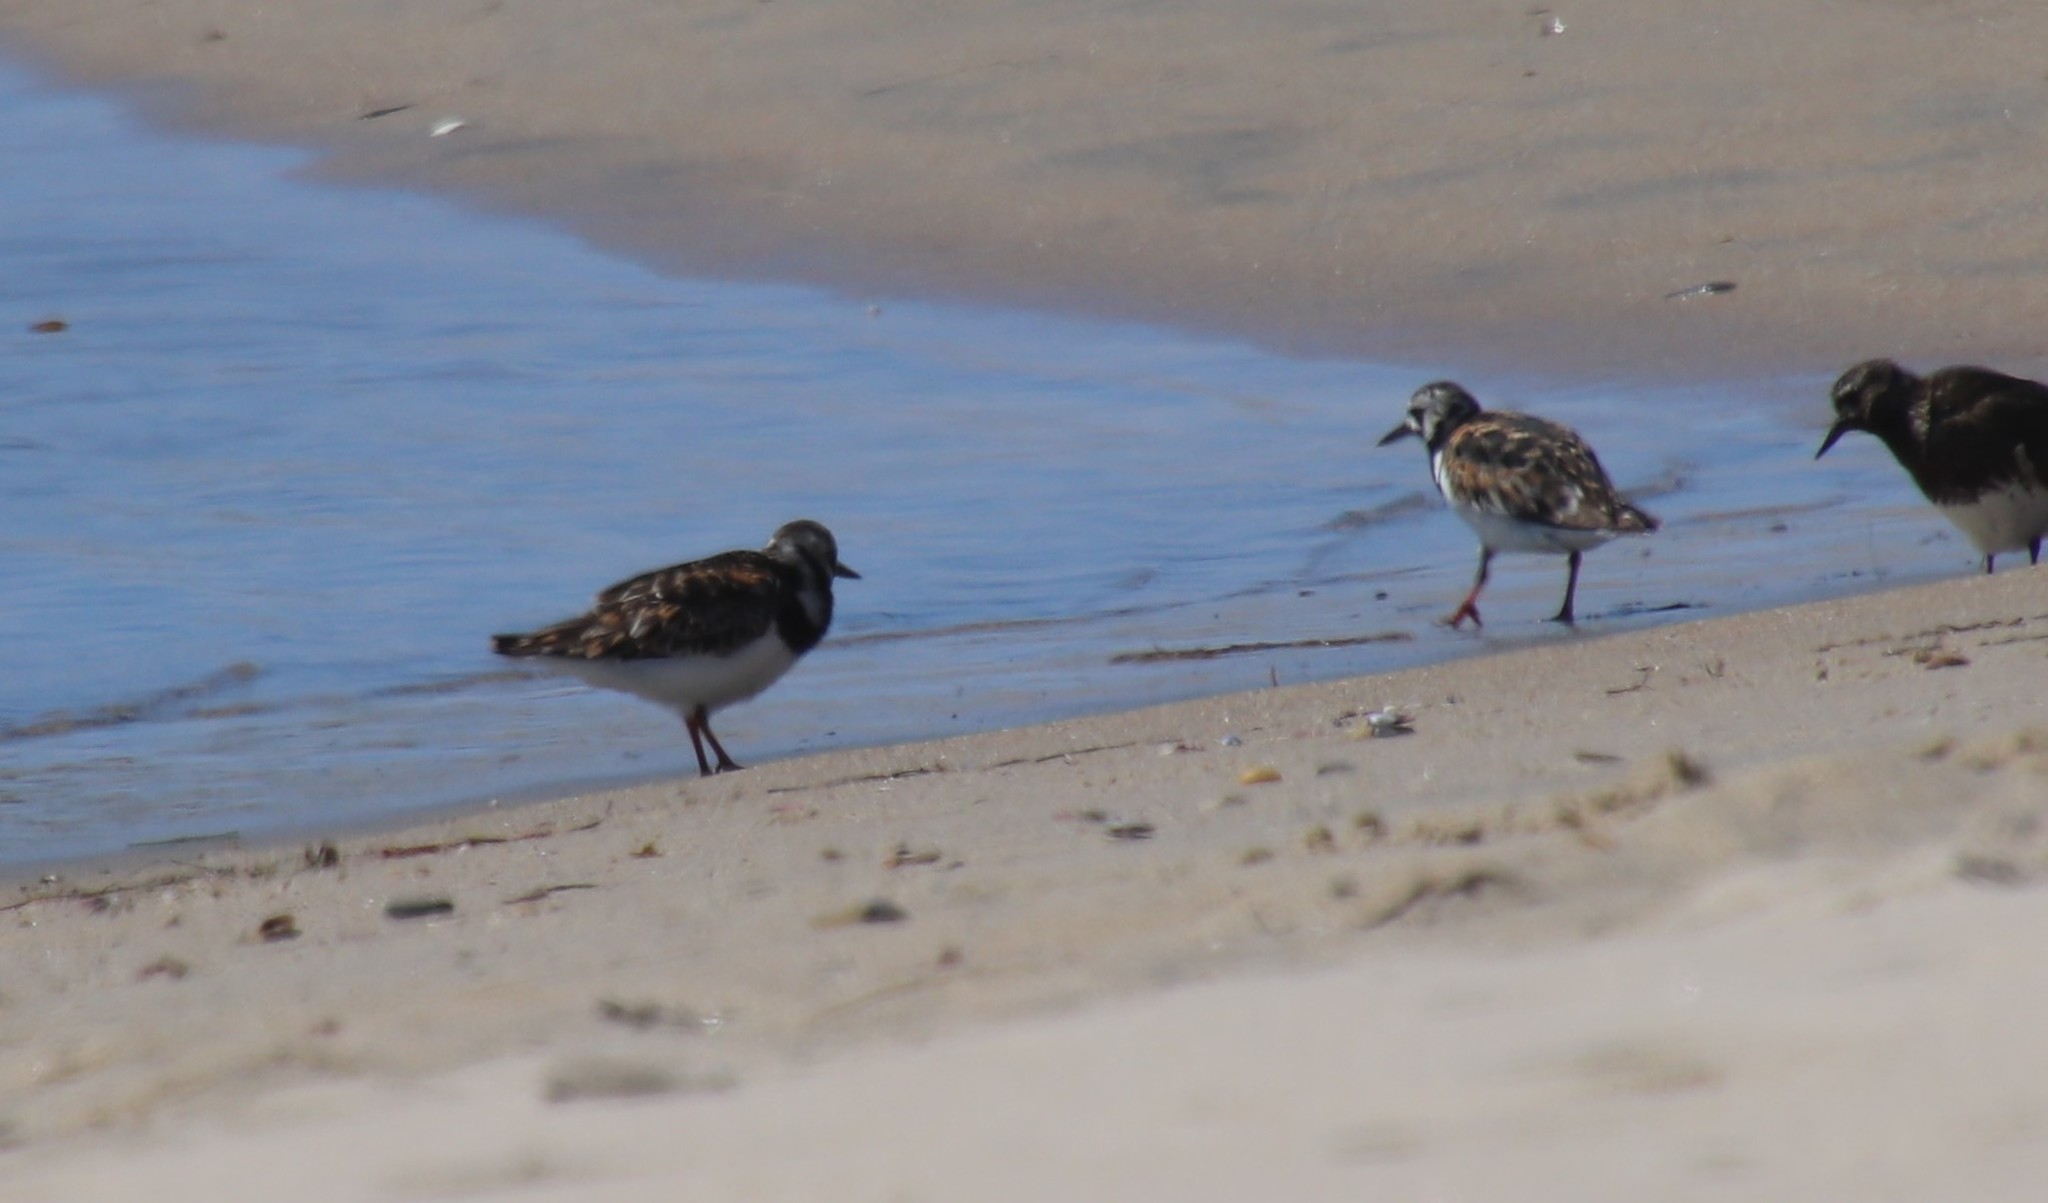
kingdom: Animalia
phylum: Chordata
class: Aves
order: Charadriiformes
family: Scolopacidae
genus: Arenaria
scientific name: Arenaria interpres
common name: Ruddy turnstone
